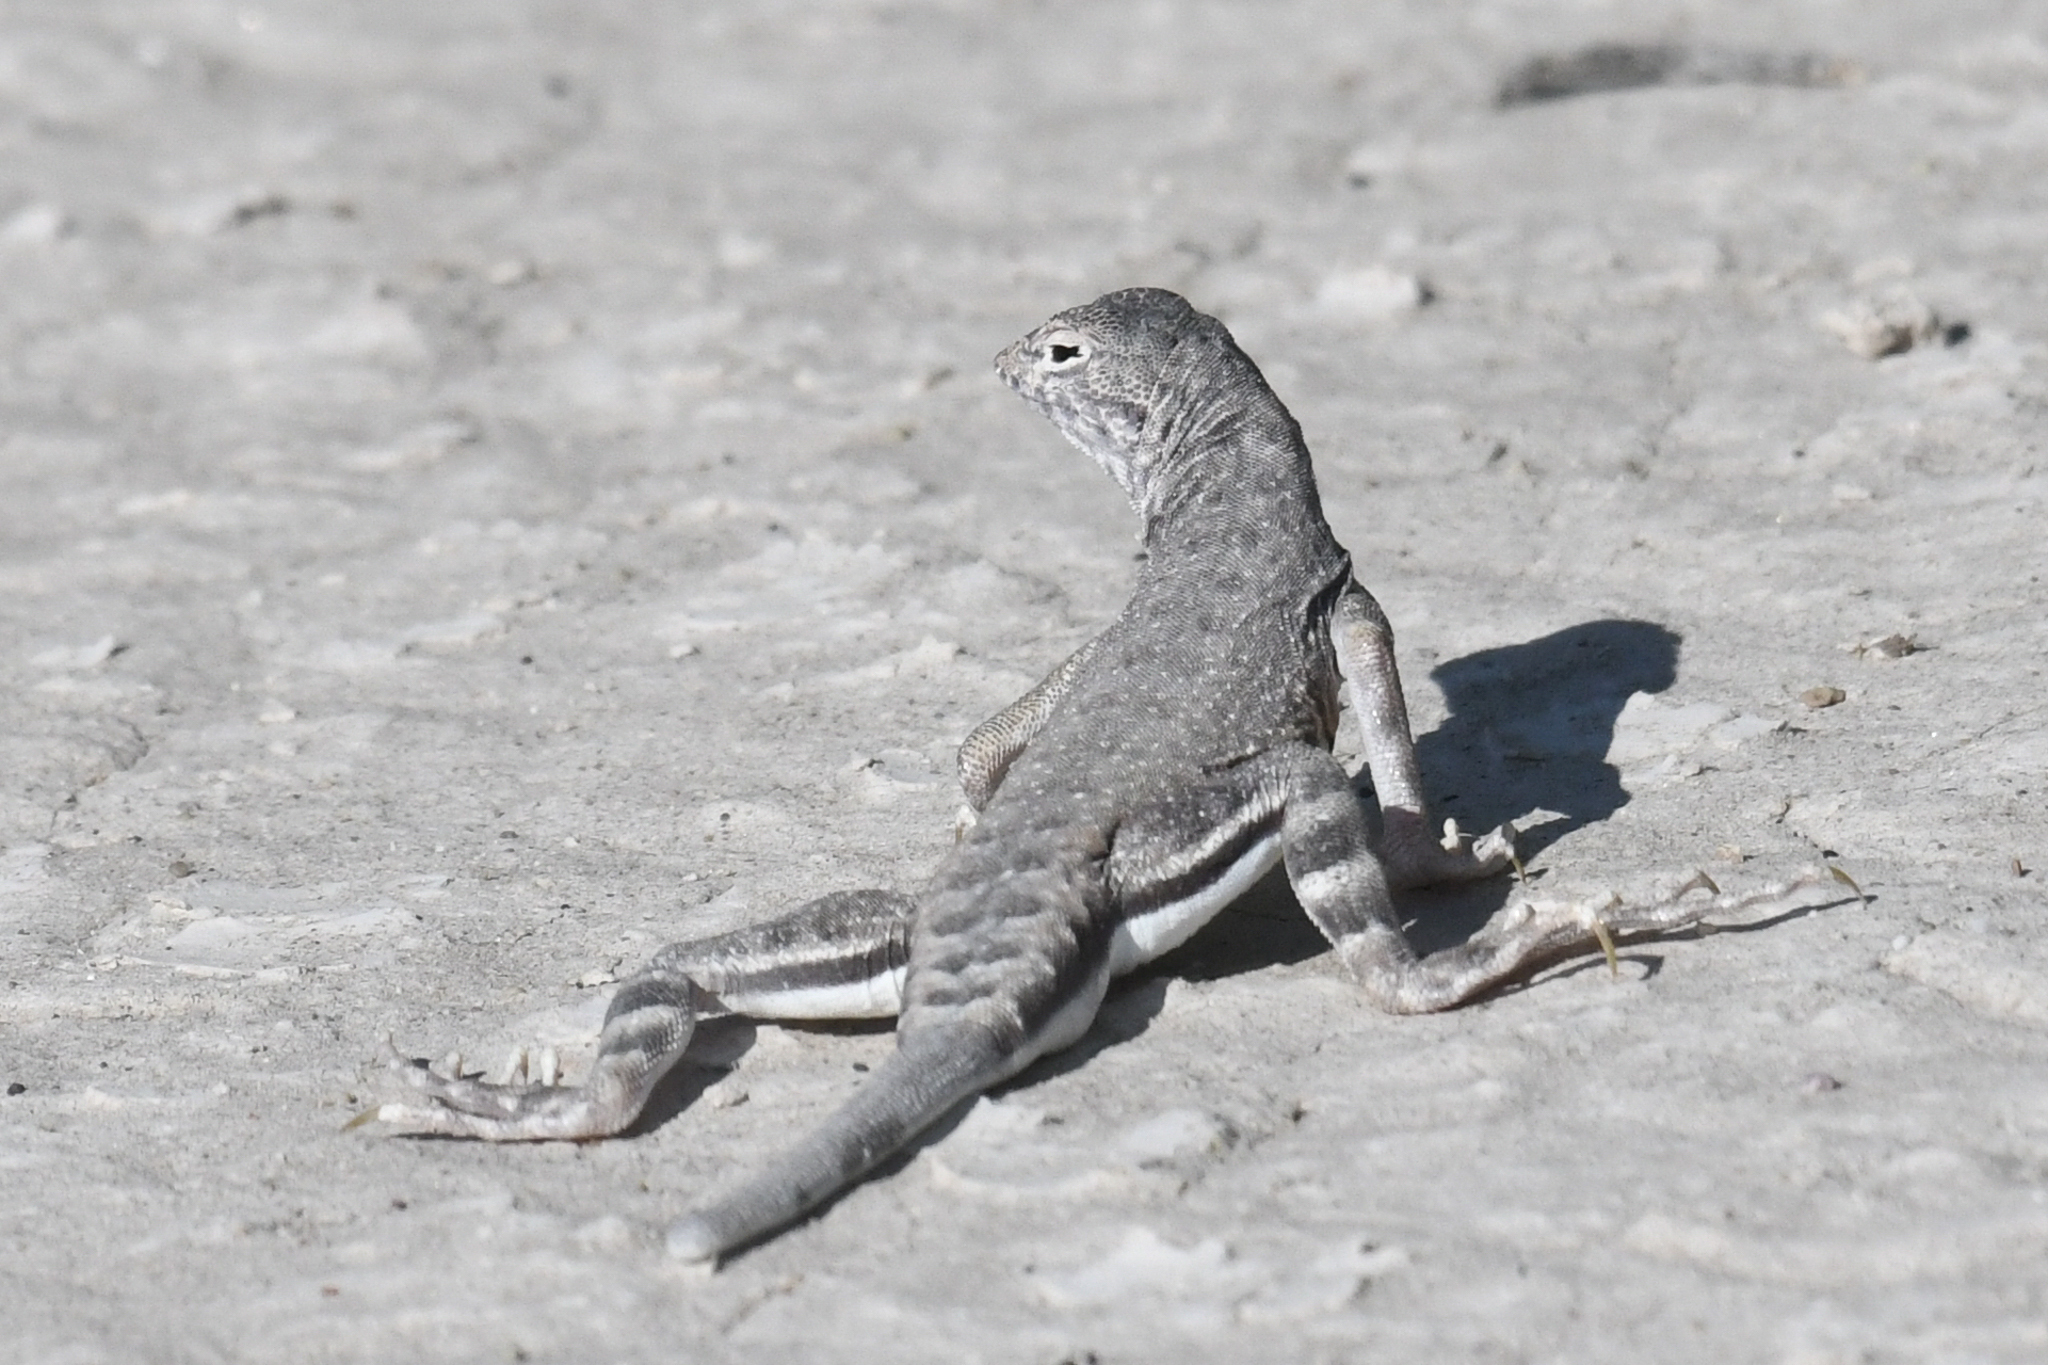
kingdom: Animalia
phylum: Chordata
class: Squamata
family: Phrynosomatidae
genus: Callisaurus
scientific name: Callisaurus draconoides
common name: Zebra-tailed lizard
